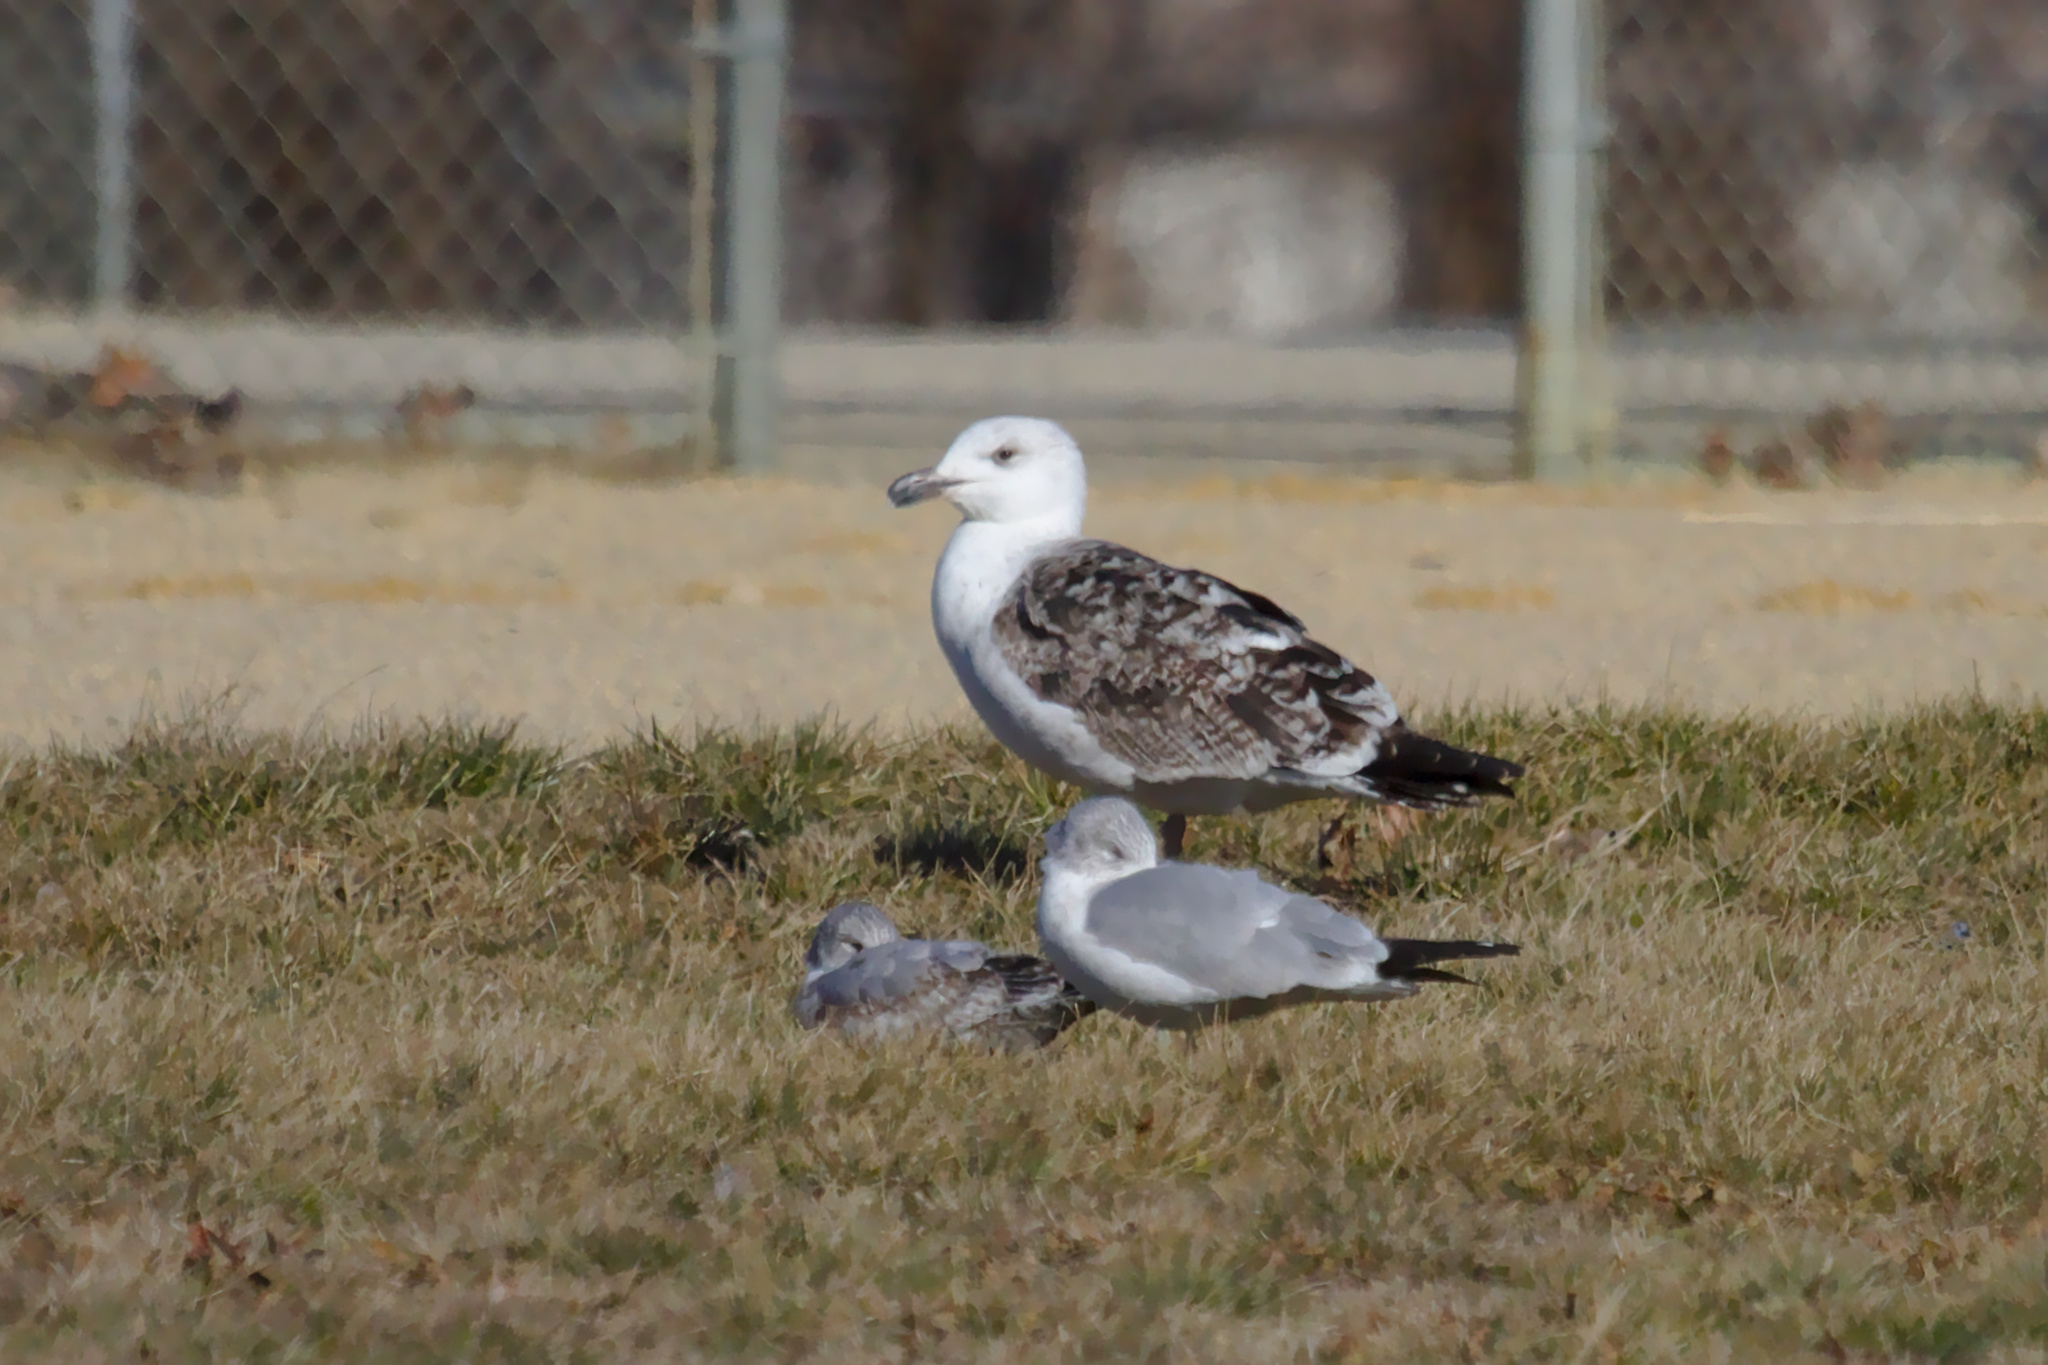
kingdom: Animalia
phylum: Chordata
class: Aves
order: Charadriiformes
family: Laridae
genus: Larus
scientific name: Larus marinus
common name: Great black-backed gull
